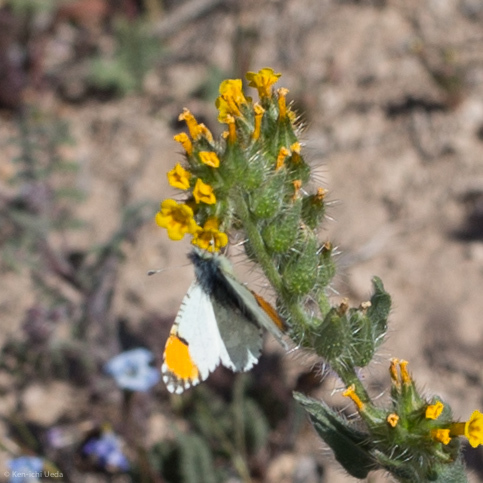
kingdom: Animalia
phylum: Arthropoda
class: Insecta
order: Lepidoptera
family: Pieridae
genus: Anthocharis
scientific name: Anthocharis sara
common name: Sara's orangetip
